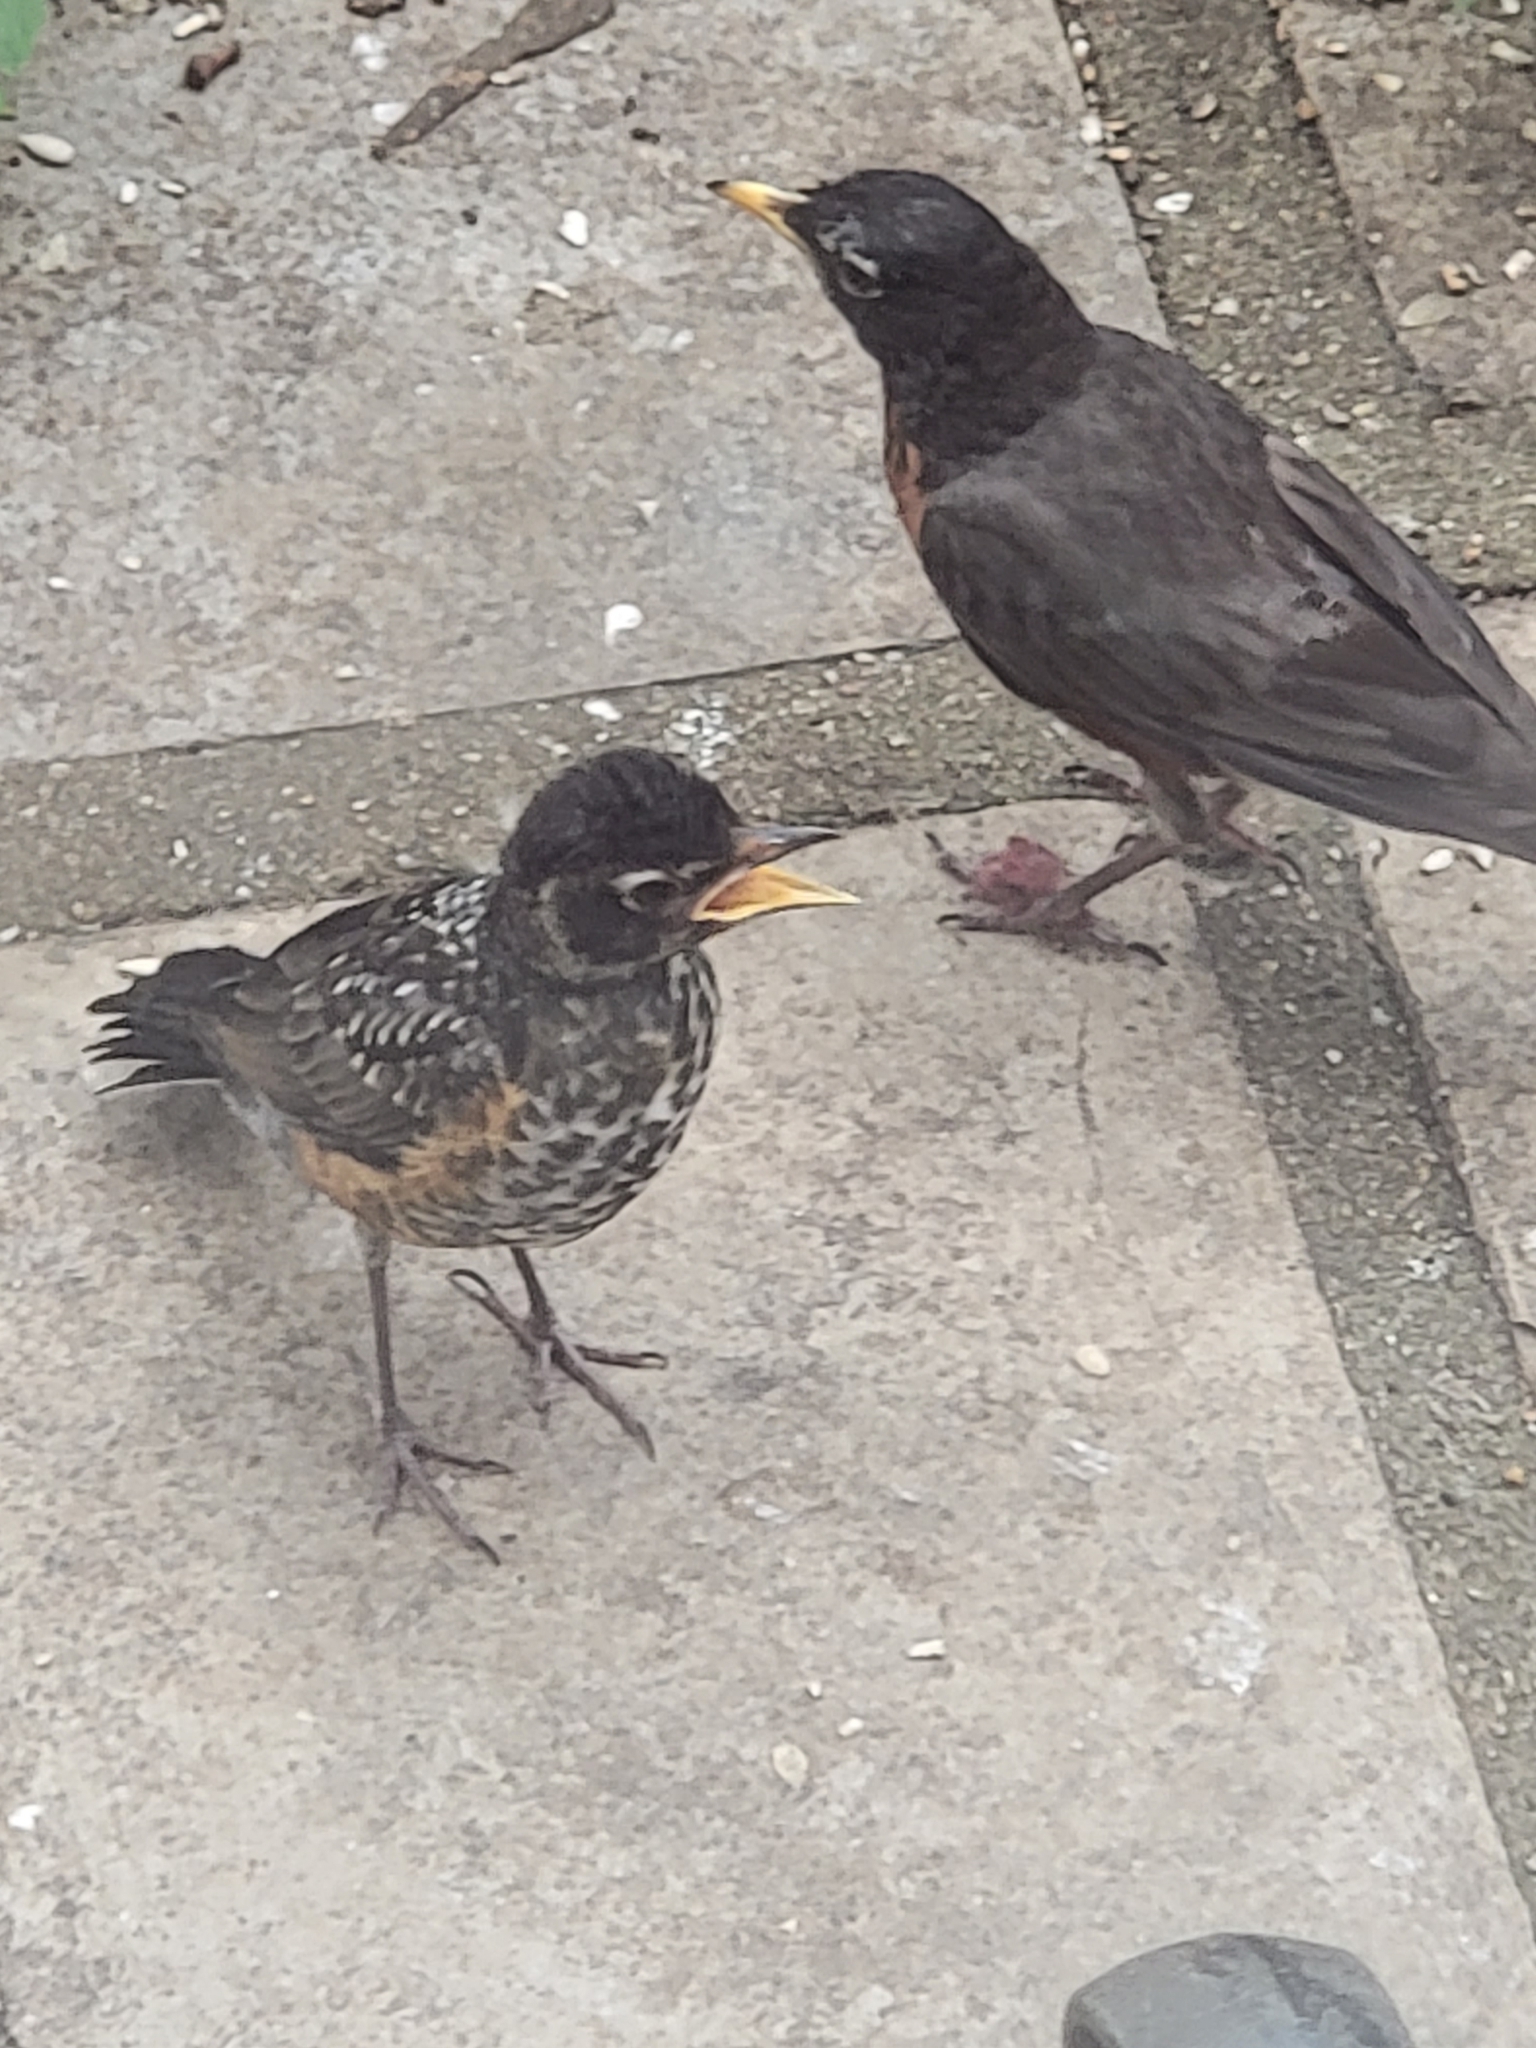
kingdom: Animalia
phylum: Chordata
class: Aves
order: Passeriformes
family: Turdidae
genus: Turdus
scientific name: Turdus migratorius
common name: American robin
